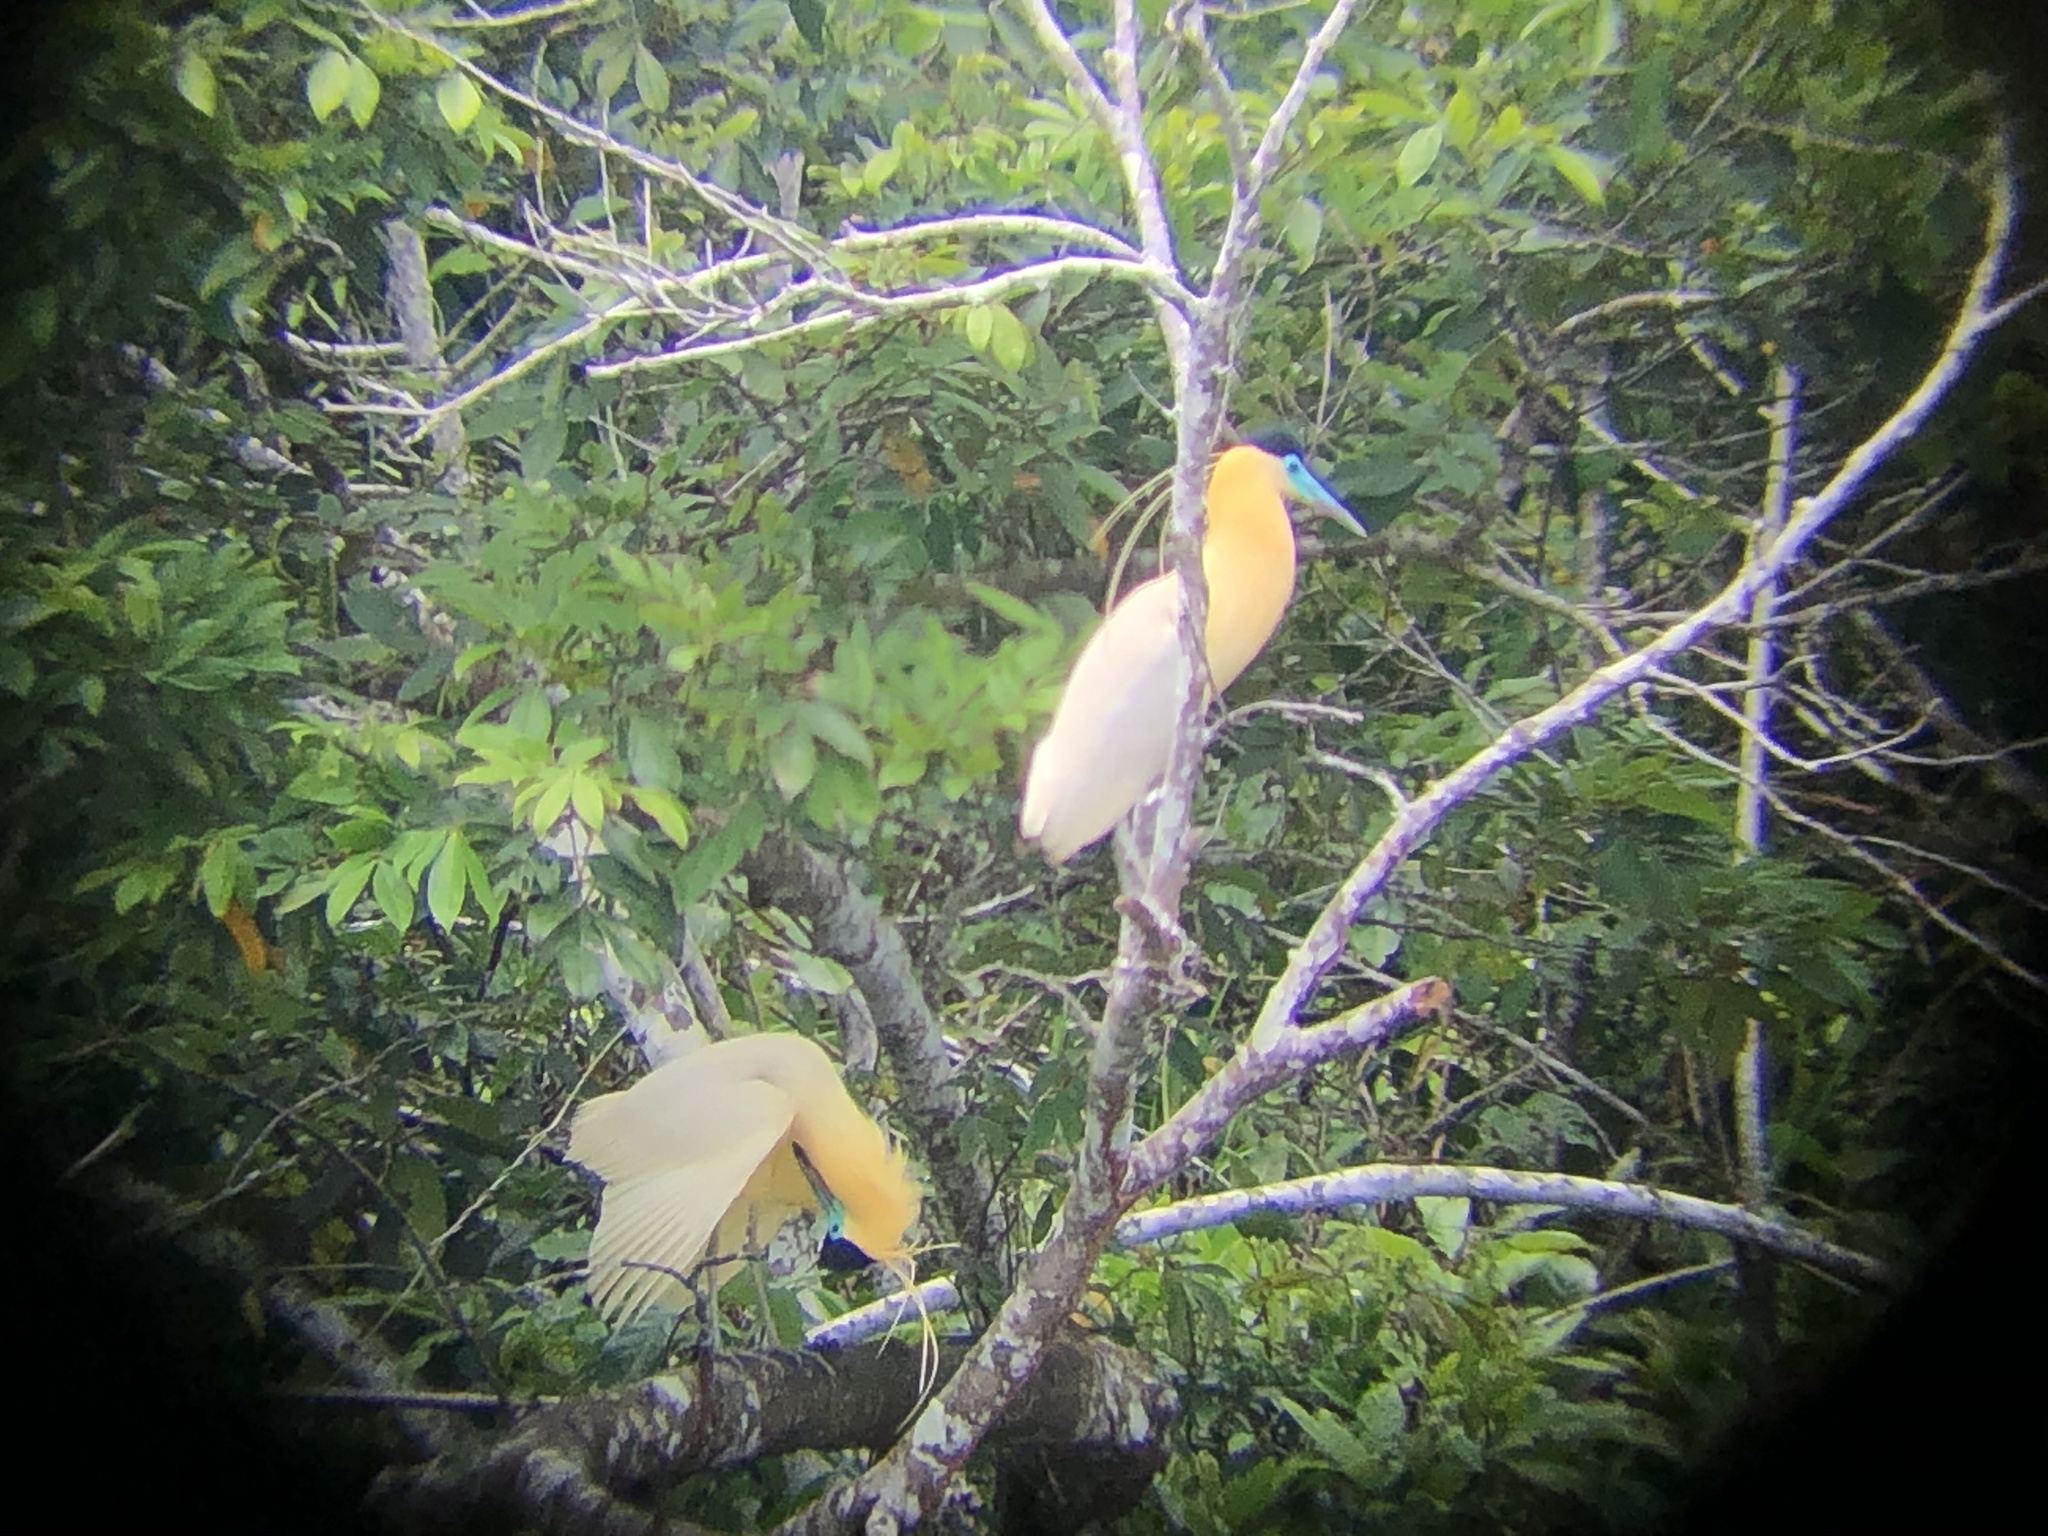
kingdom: Animalia
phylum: Chordata
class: Aves
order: Pelecaniformes
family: Ardeidae
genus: Pilherodius
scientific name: Pilherodius pileatus
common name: Capped heron
